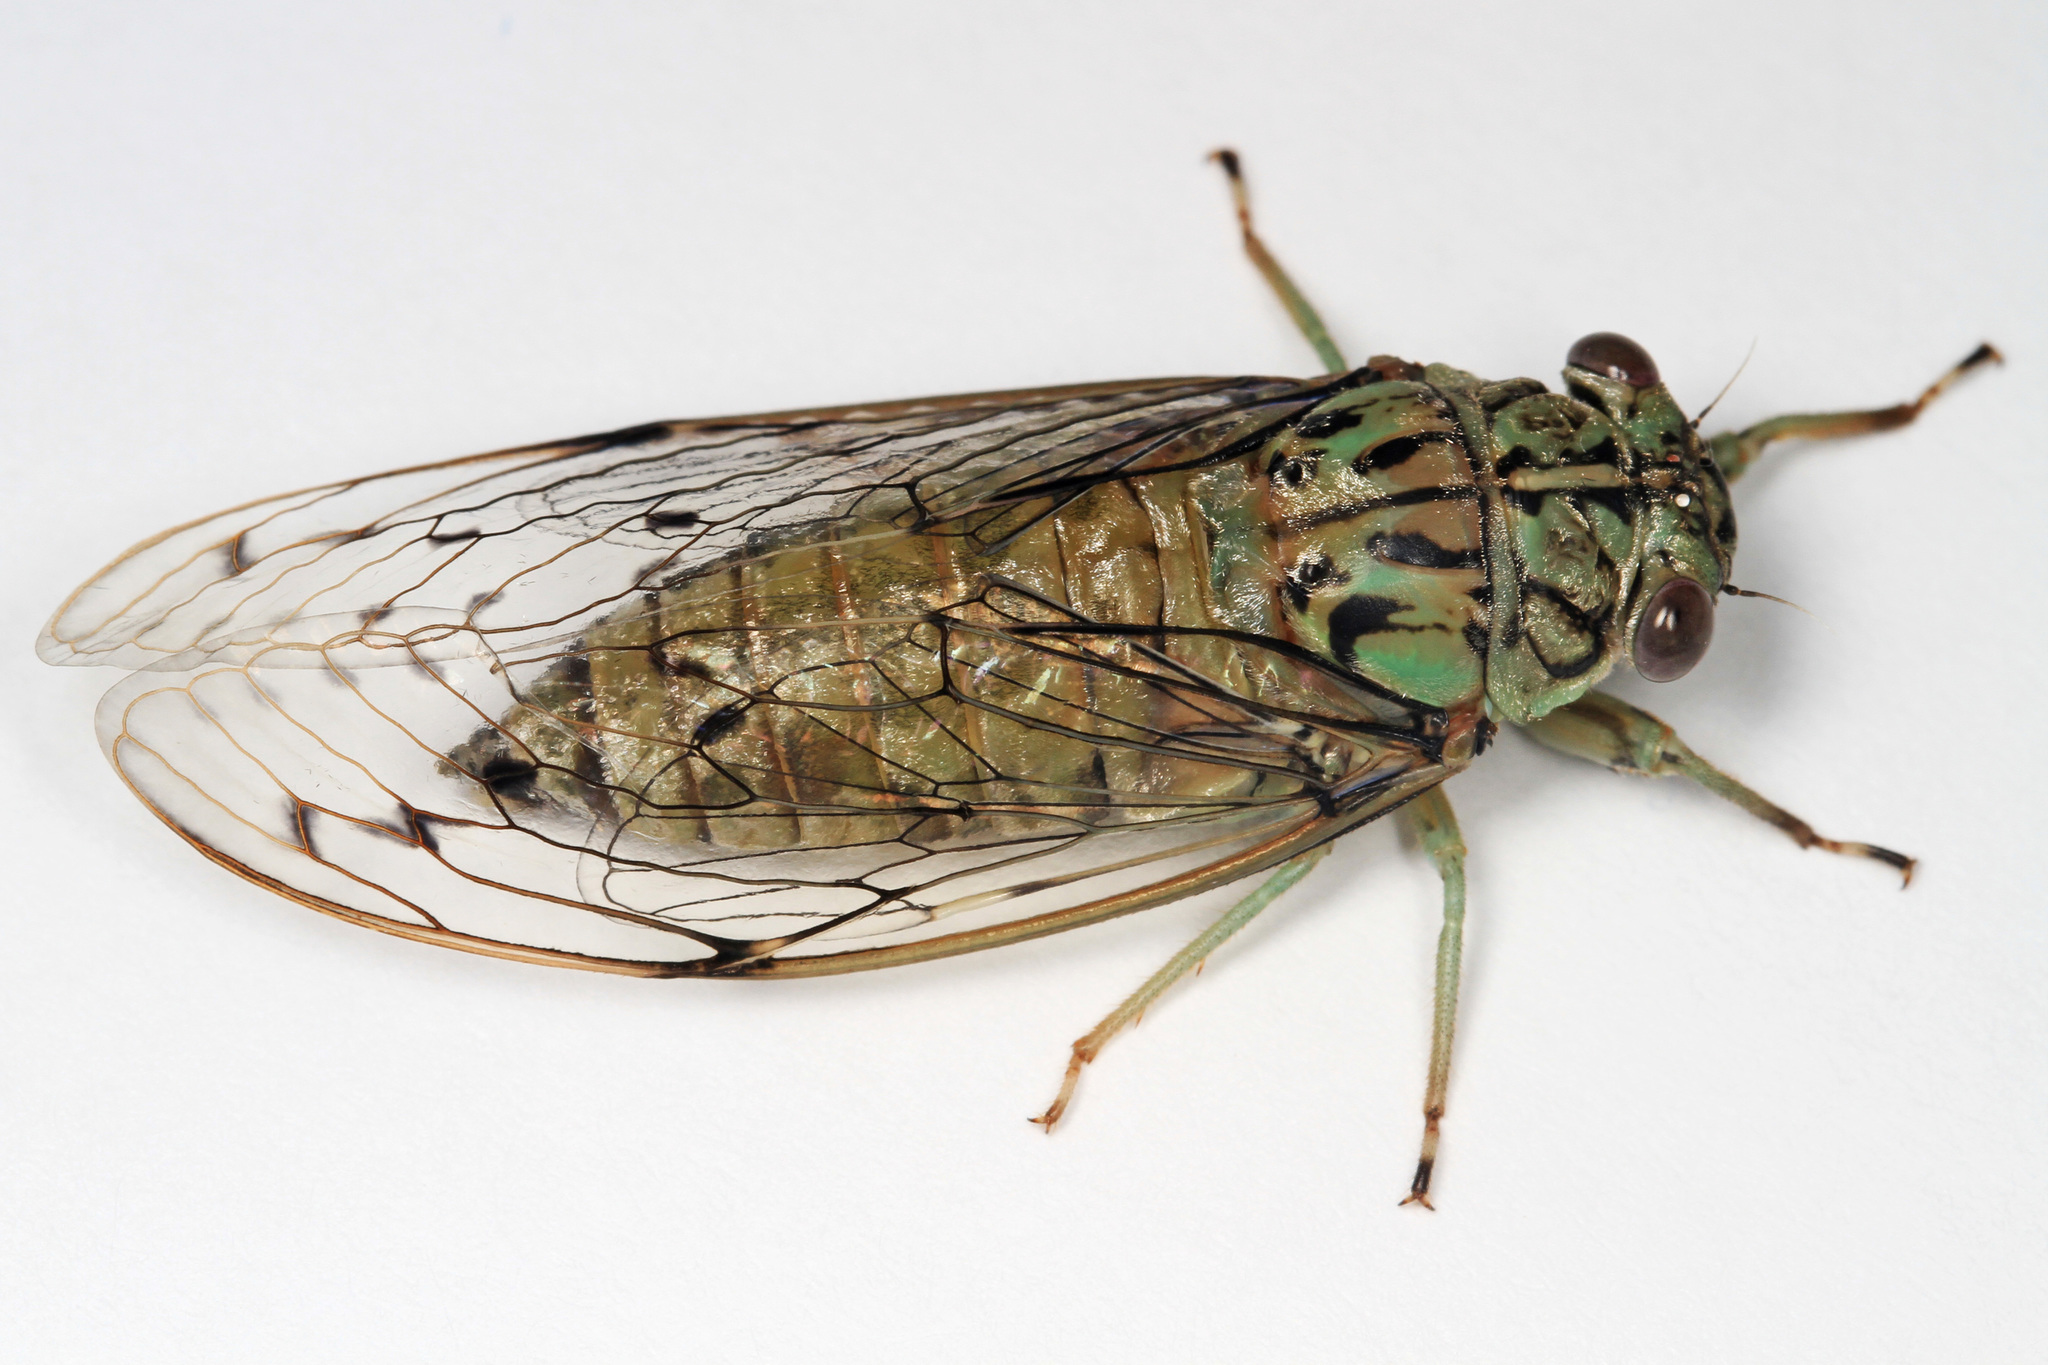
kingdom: Animalia
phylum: Arthropoda
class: Insecta
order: Hemiptera
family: Cicadidae
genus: Neocicada
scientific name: Neocicada hieroglyphica
